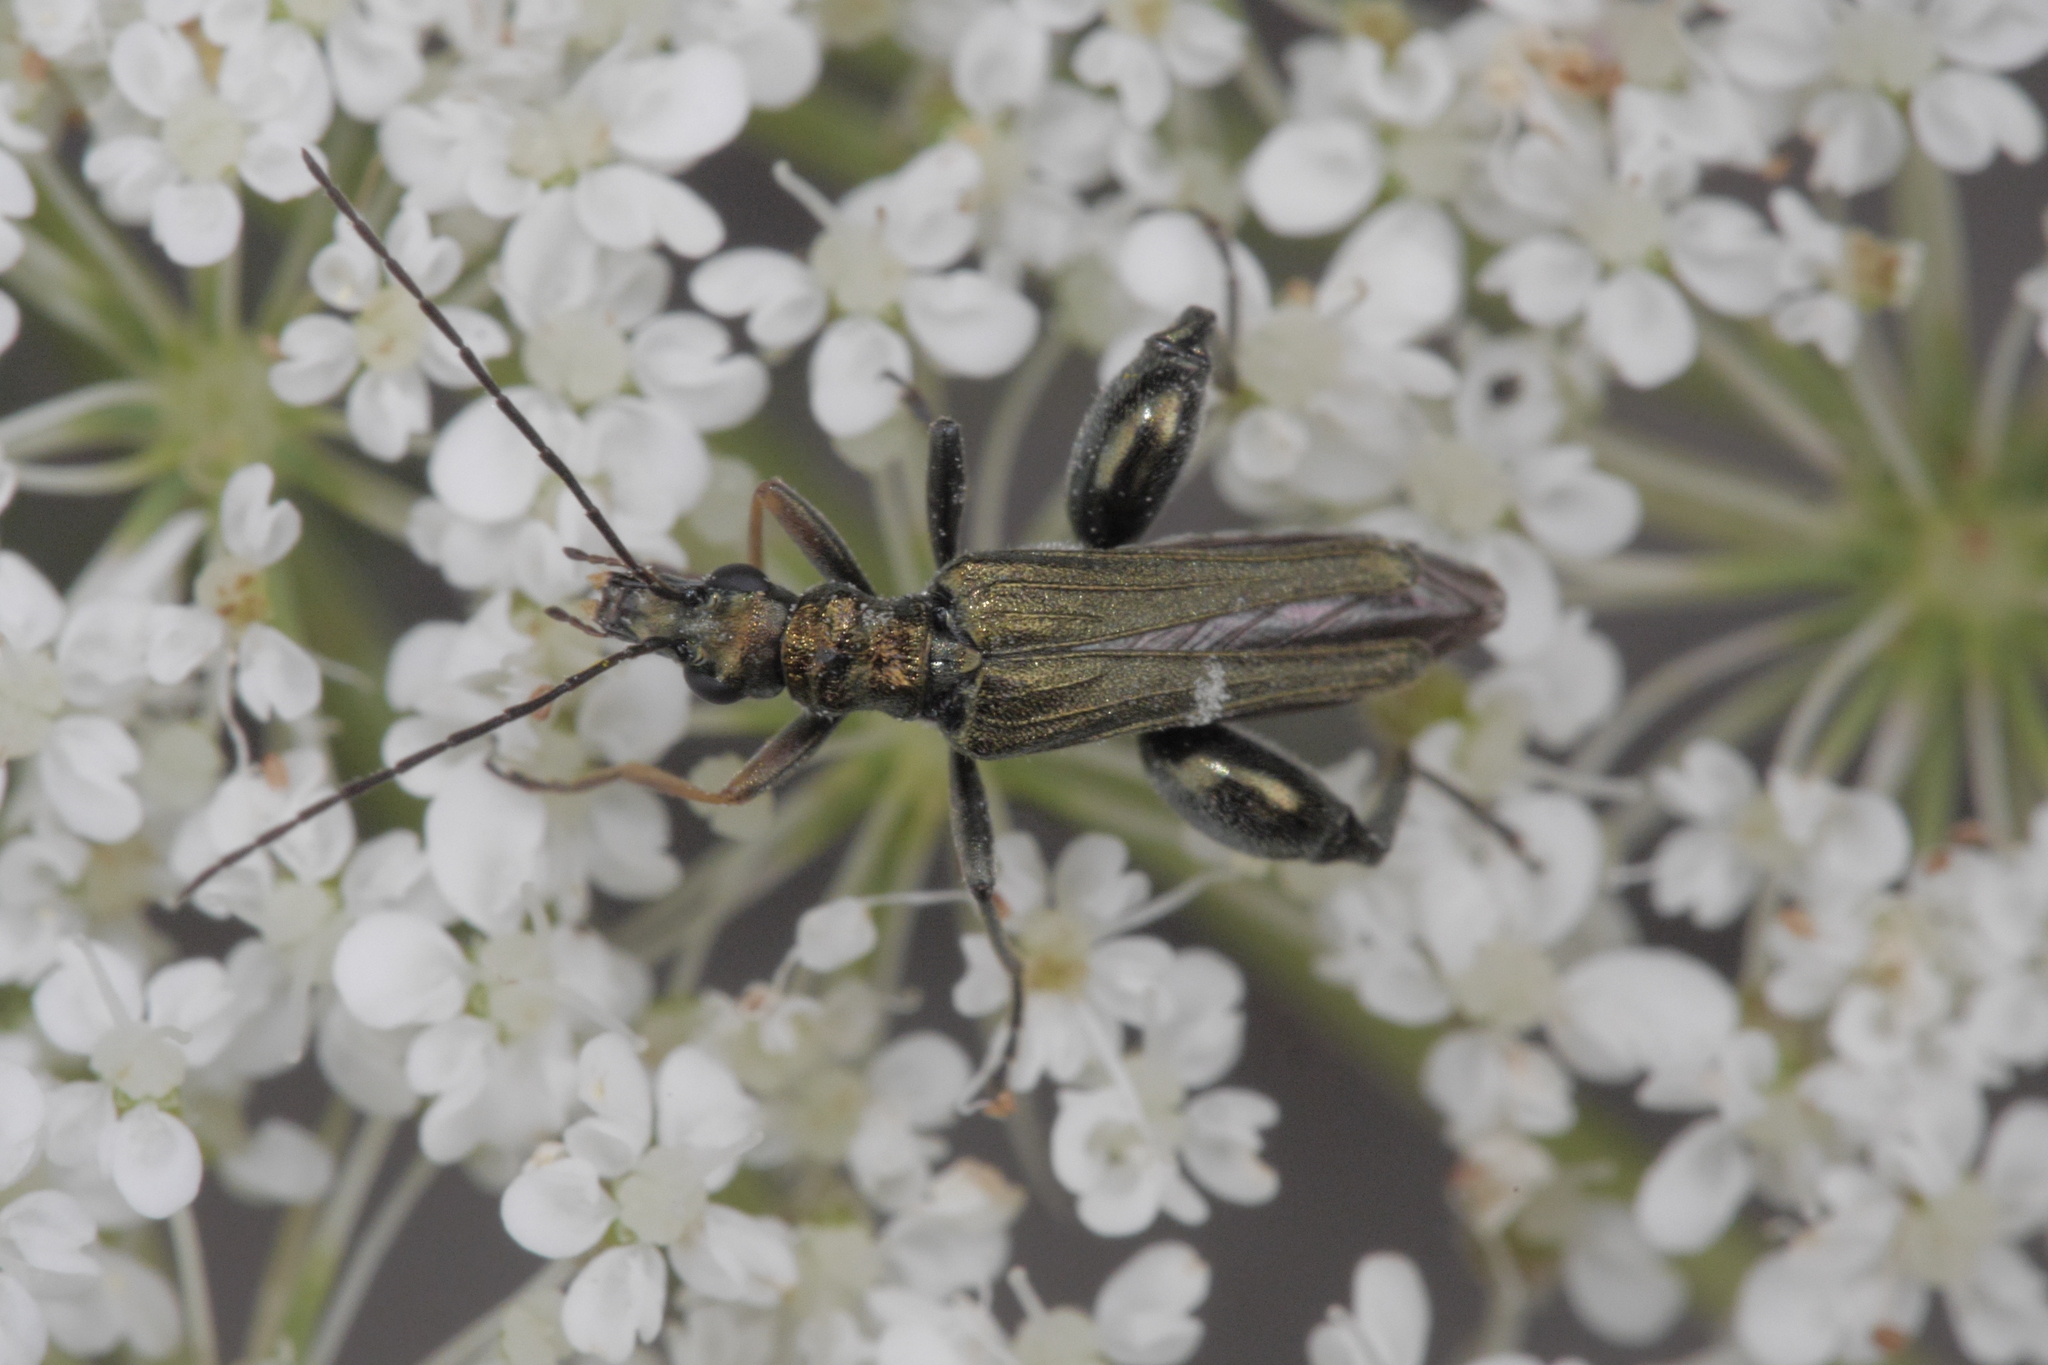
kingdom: Animalia
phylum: Arthropoda
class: Insecta
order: Coleoptera
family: Oedemeridae
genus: Oedemera
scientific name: Oedemera flavipes
